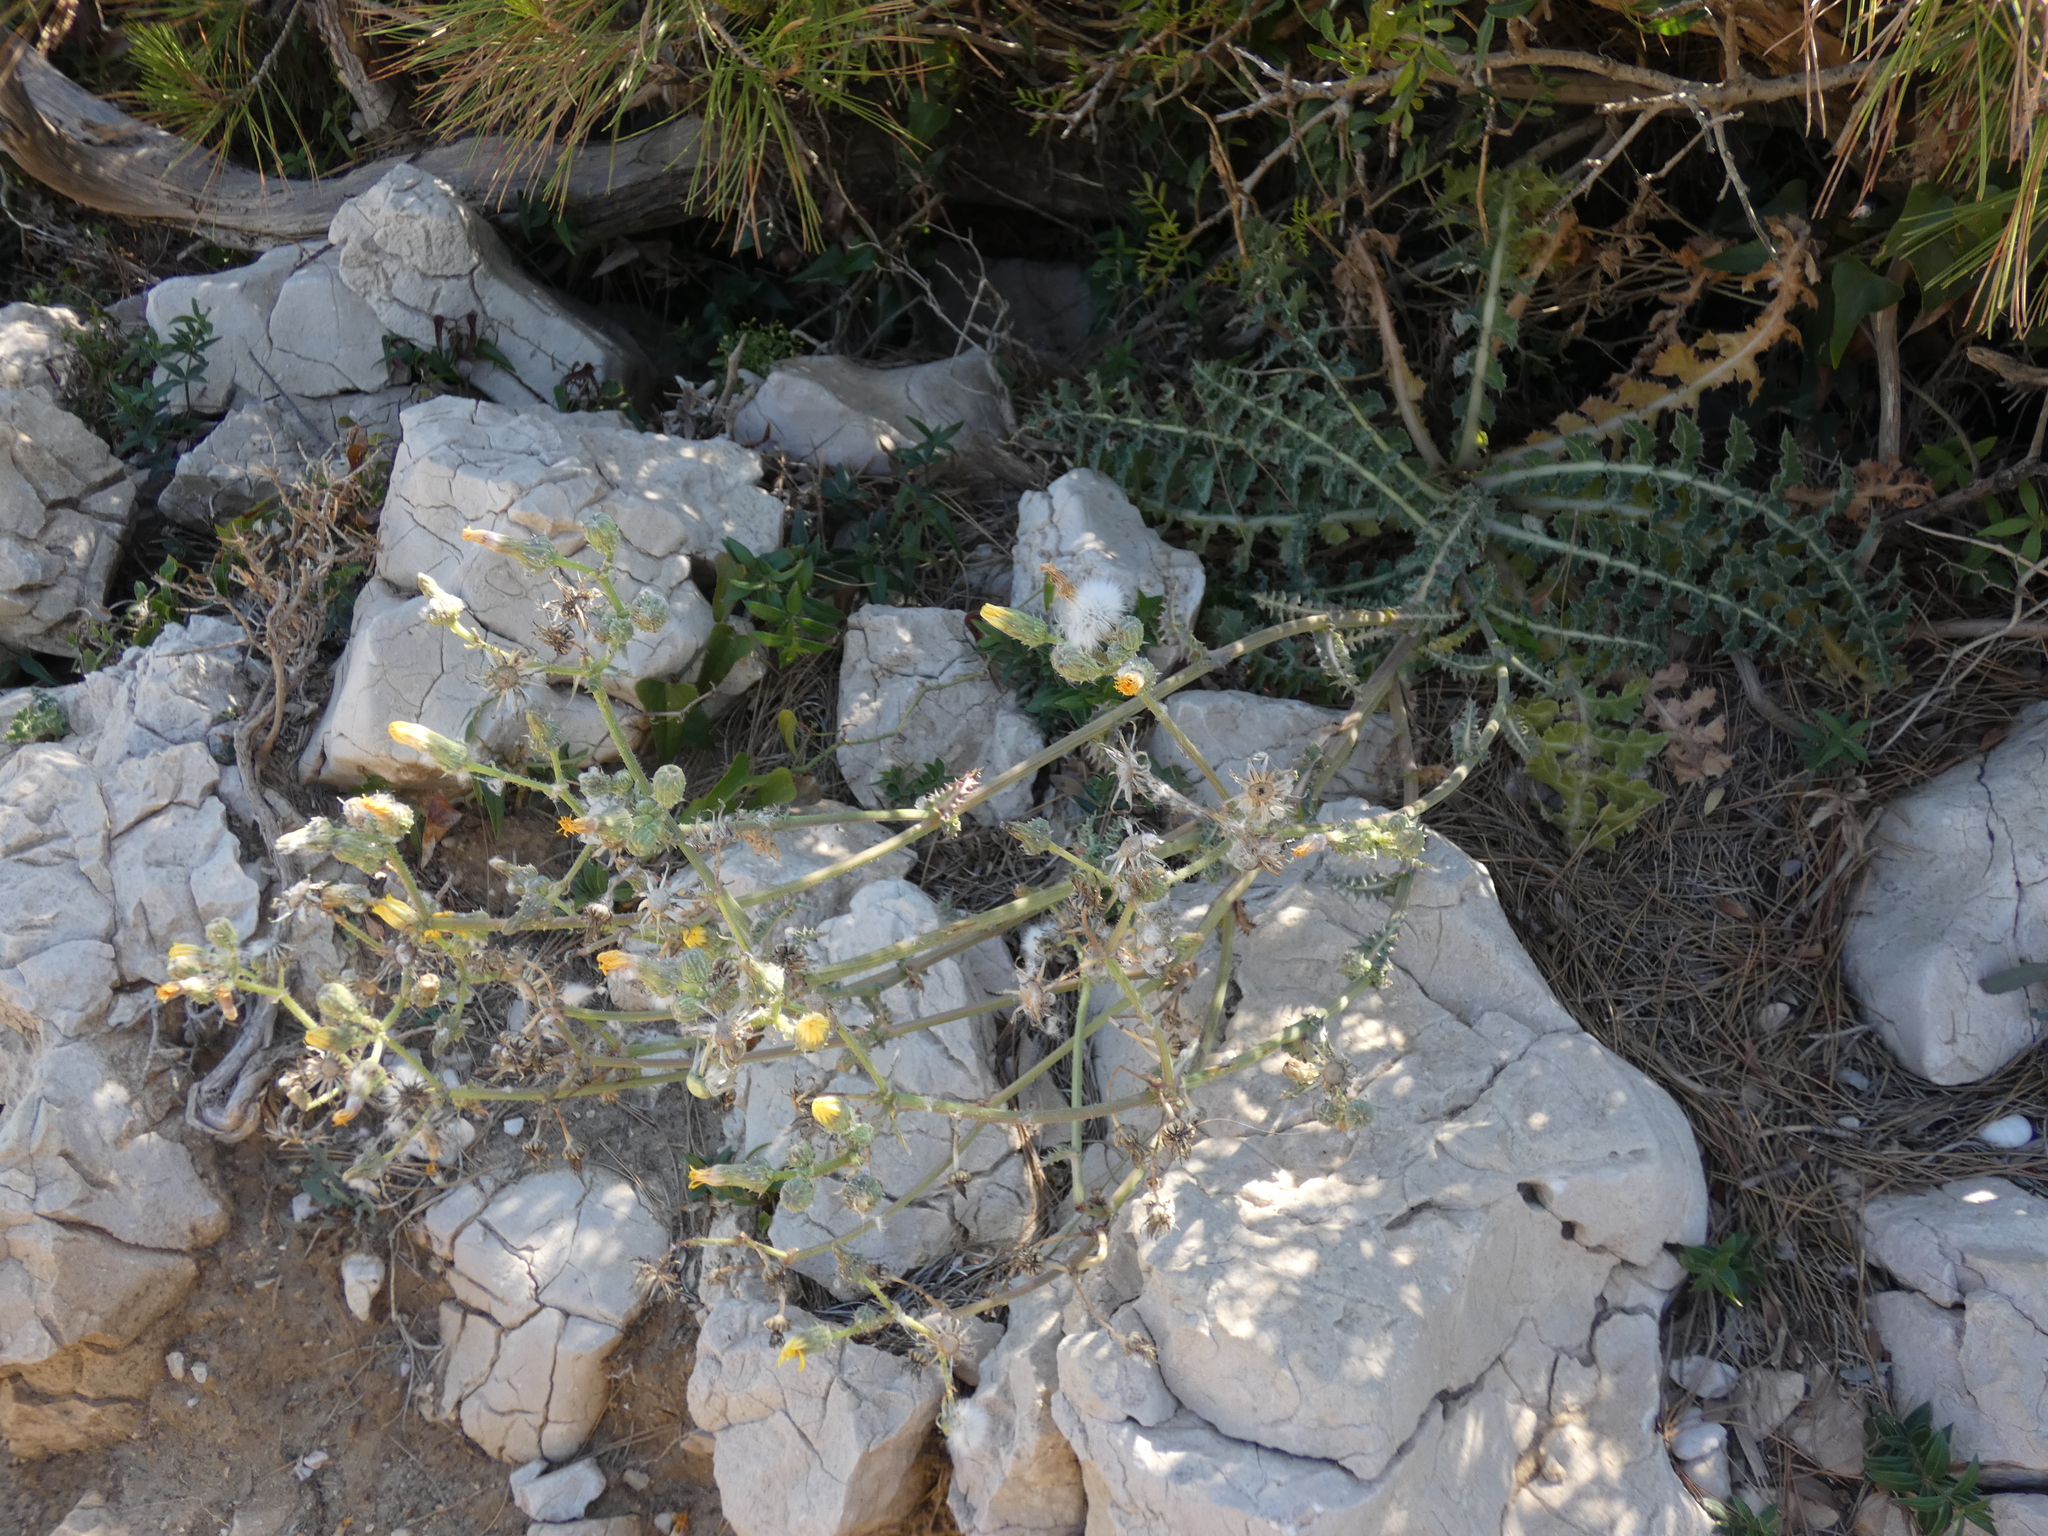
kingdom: Plantae
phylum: Tracheophyta
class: Magnoliopsida
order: Asterales
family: Asteraceae
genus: Sonchus
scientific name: Sonchus asper
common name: Prickly sow-thistle
